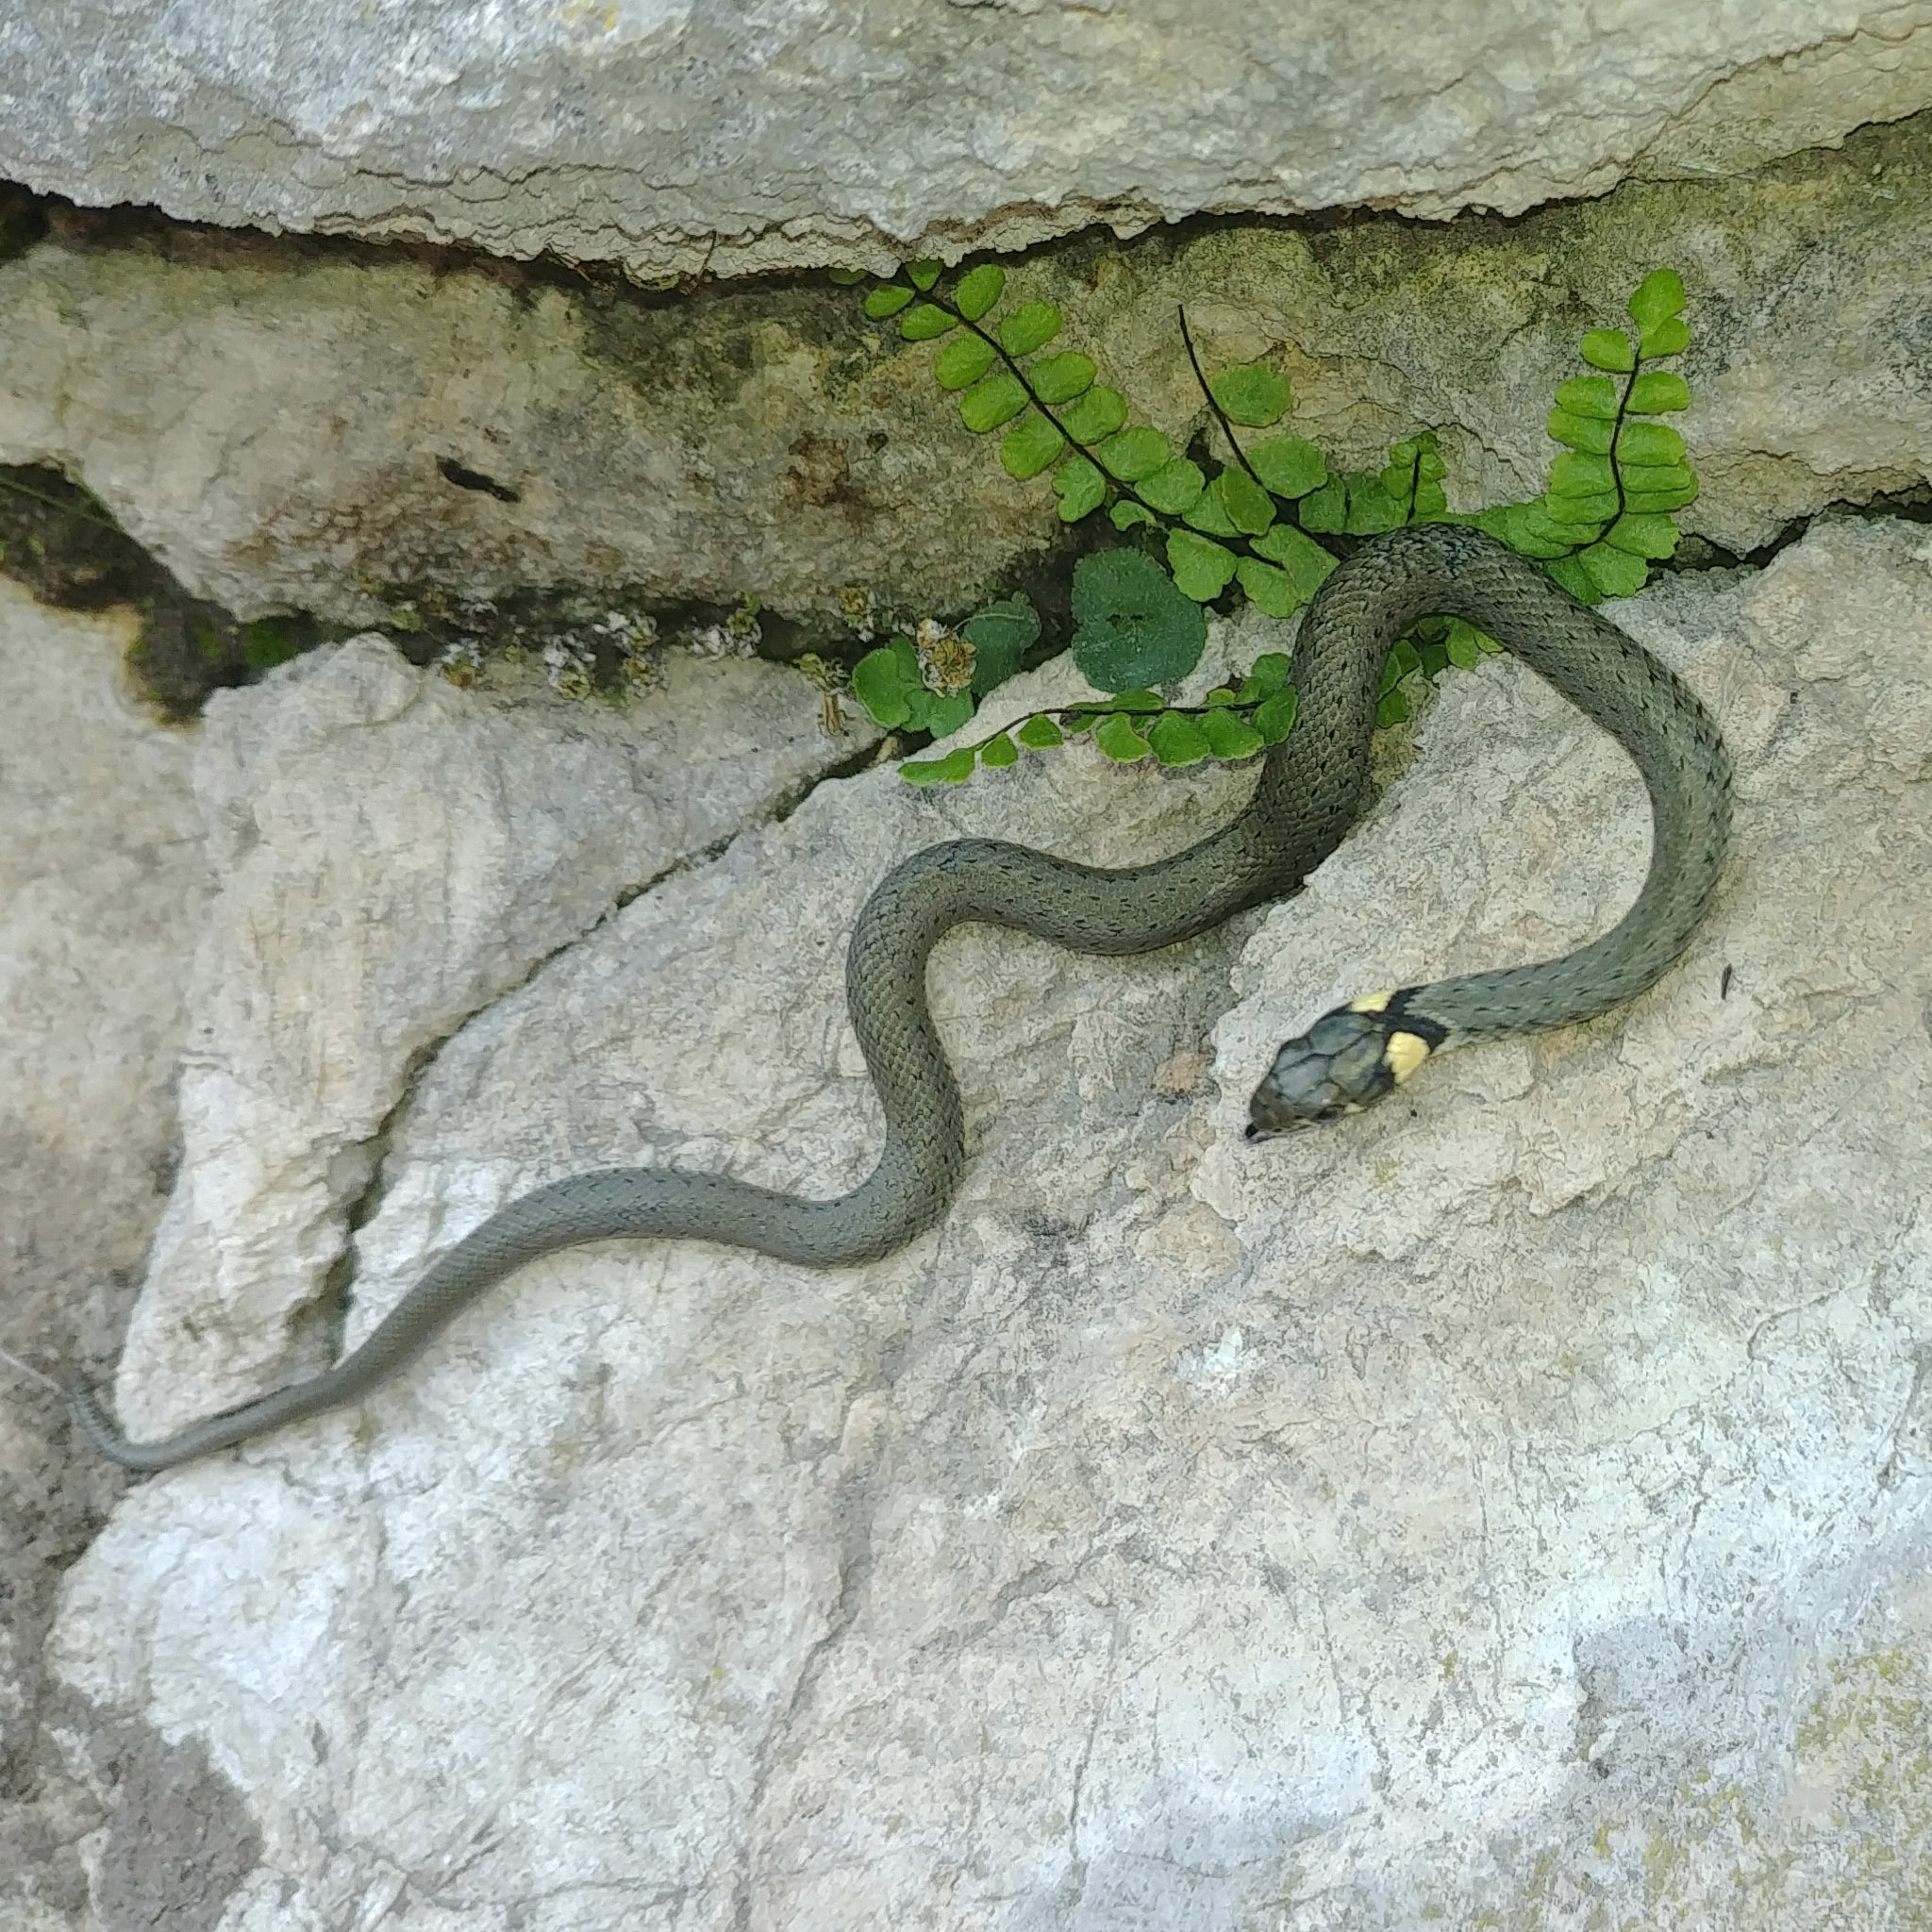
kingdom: Animalia
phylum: Chordata
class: Squamata
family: Colubridae
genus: Natrix
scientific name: Natrix natrix
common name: Grass snake
